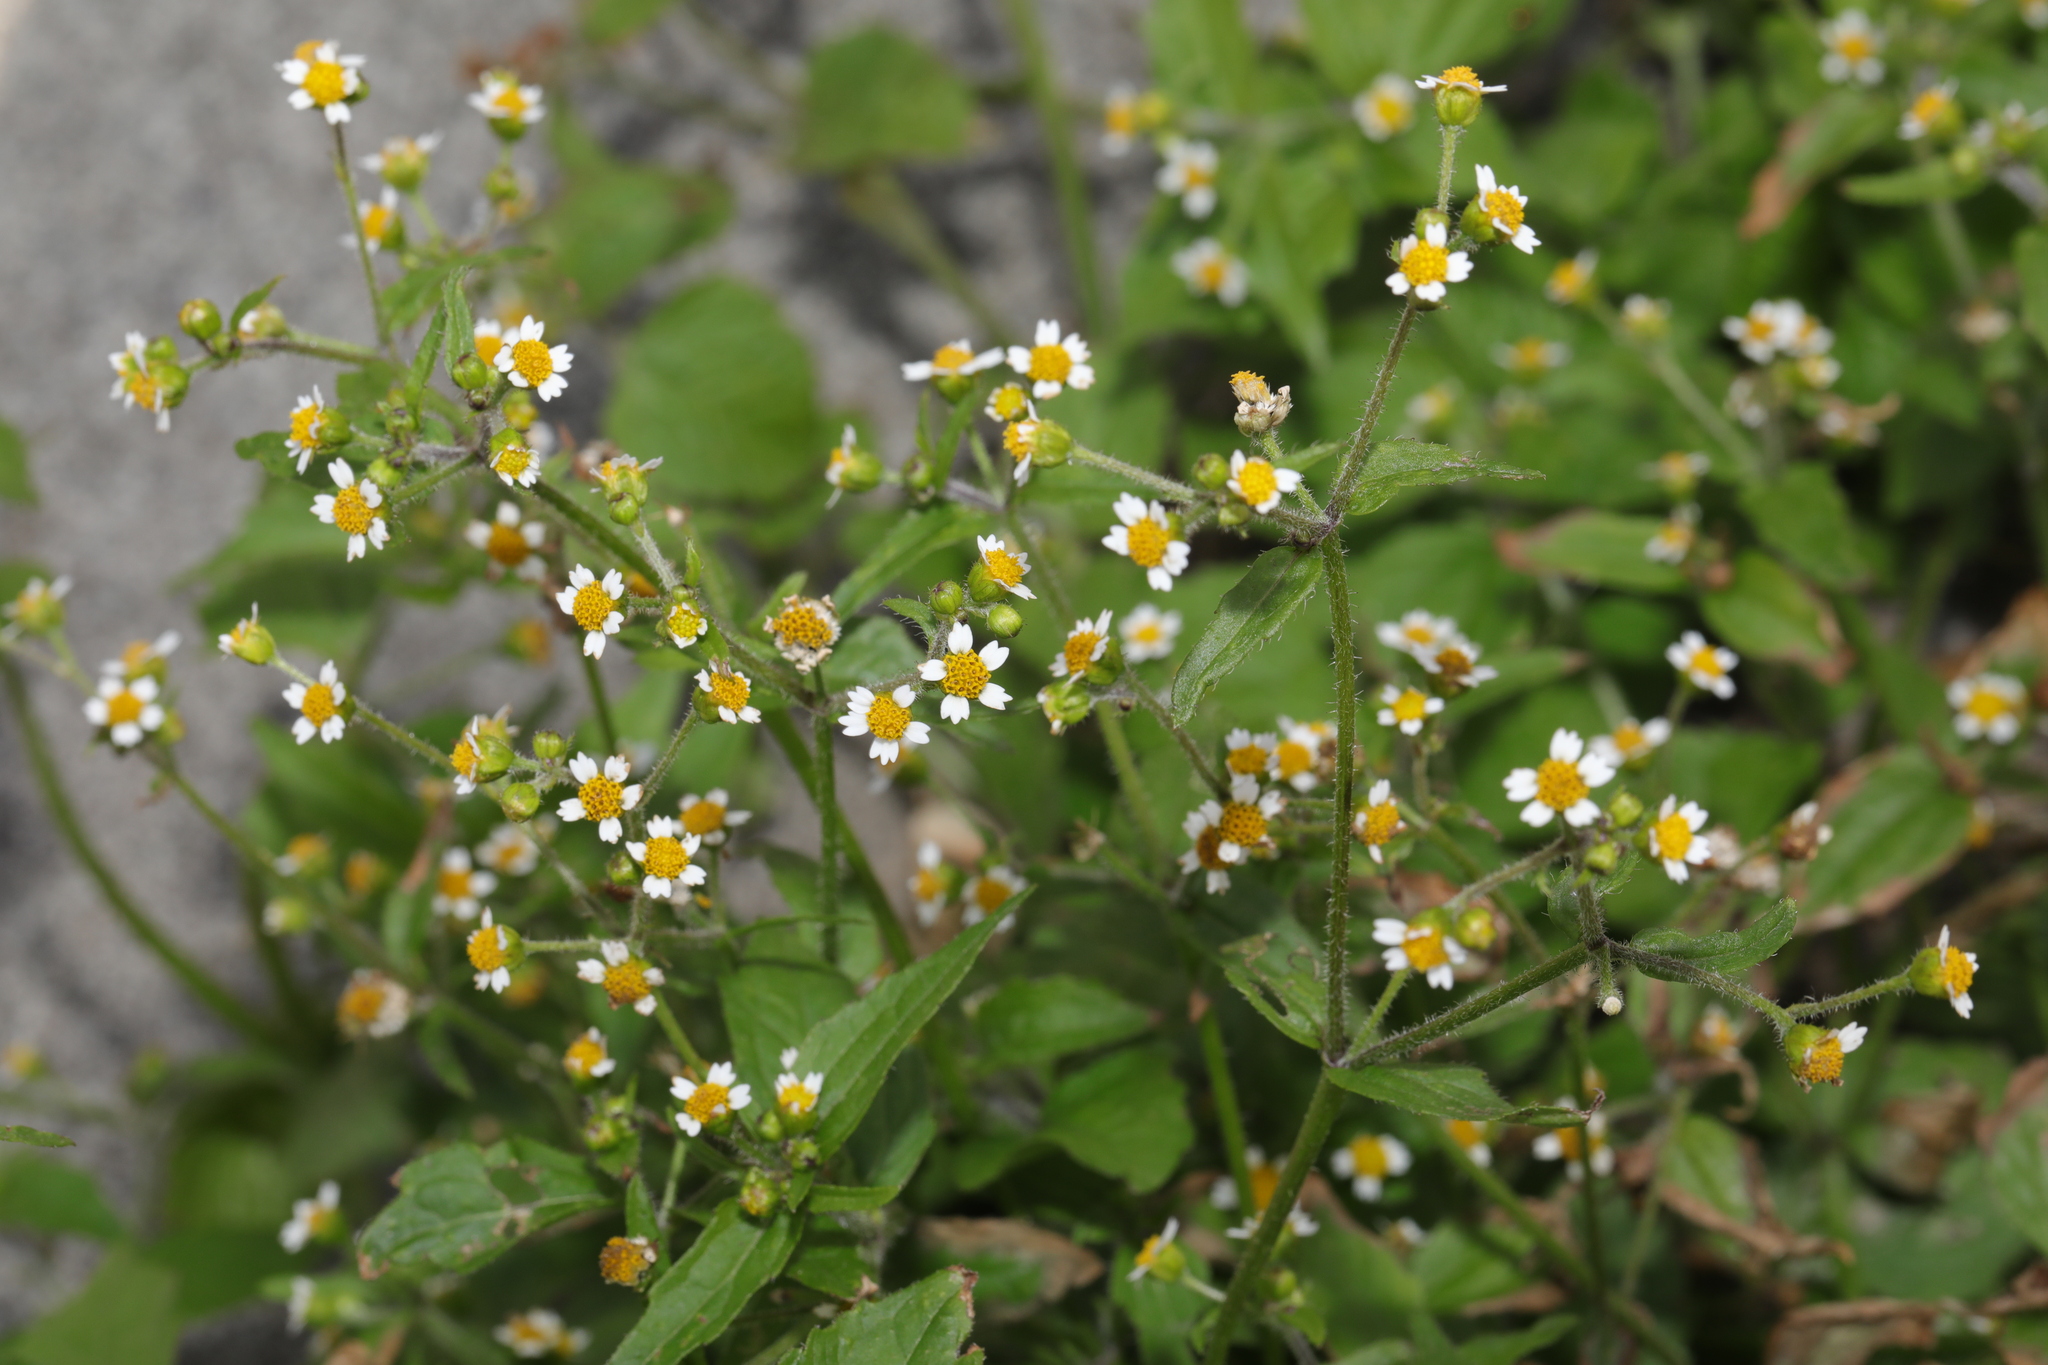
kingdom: Plantae
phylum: Tracheophyta
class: Magnoliopsida
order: Asterales
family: Asteraceae
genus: Galinsoga
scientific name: Galinsoga quadriradiata
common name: Shaggy soldier
